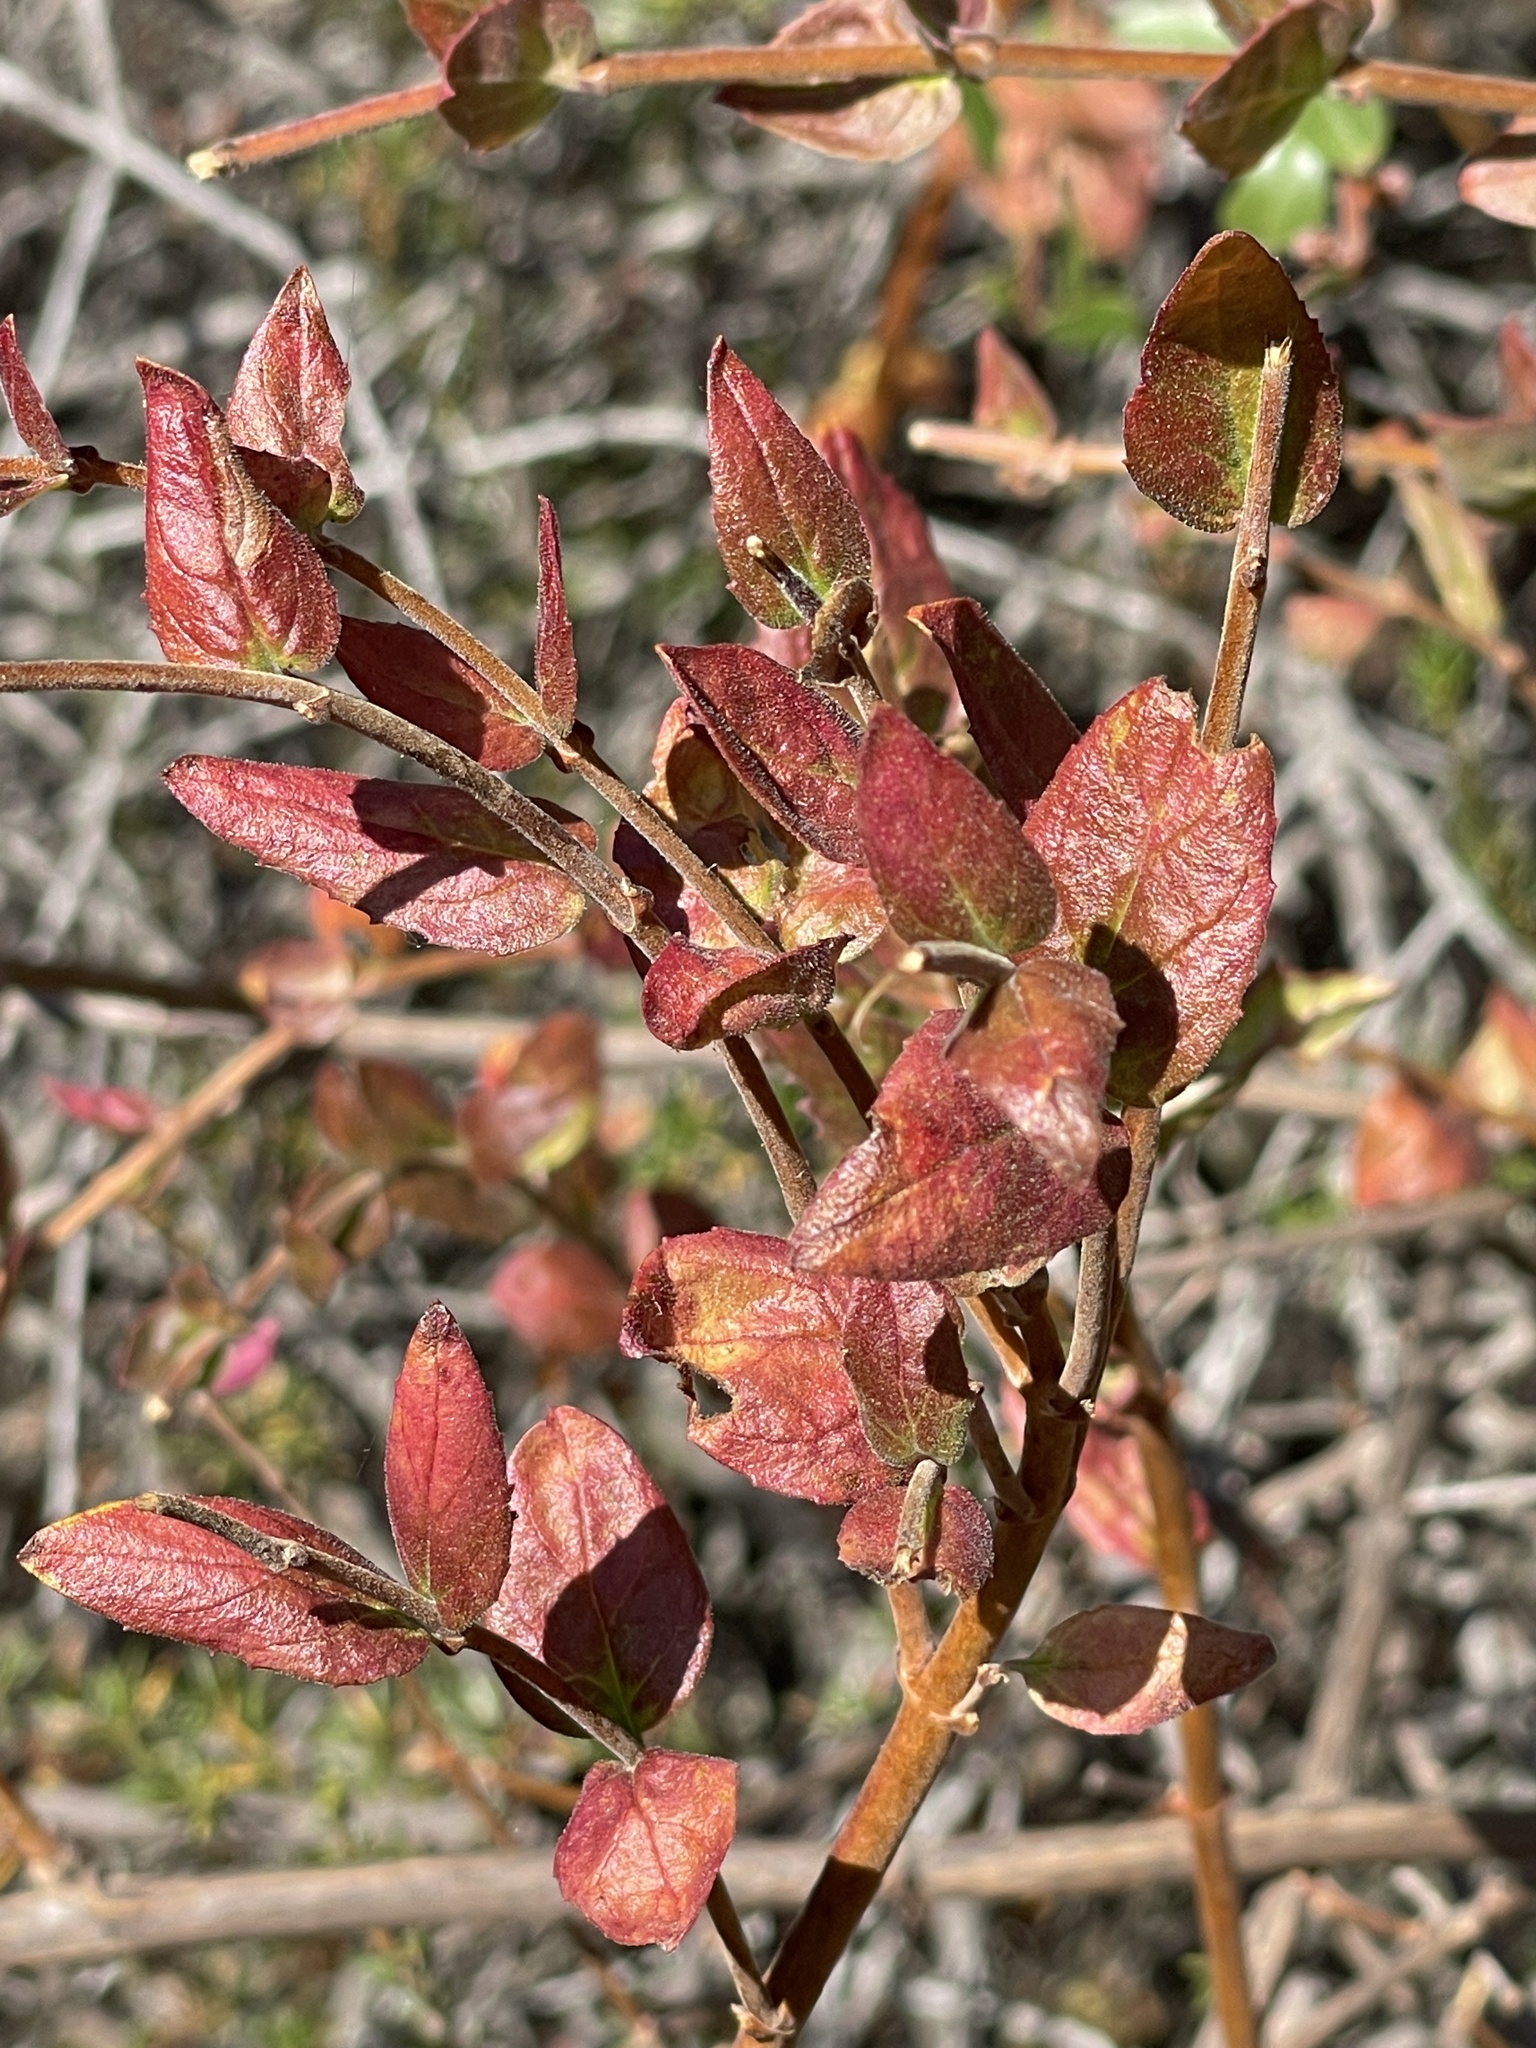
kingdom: Plantae
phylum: Tracheophyta
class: Magnoliopsida
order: Lamiales
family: Plantaginaceae
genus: Keckiella
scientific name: Keckiella cordifolia
